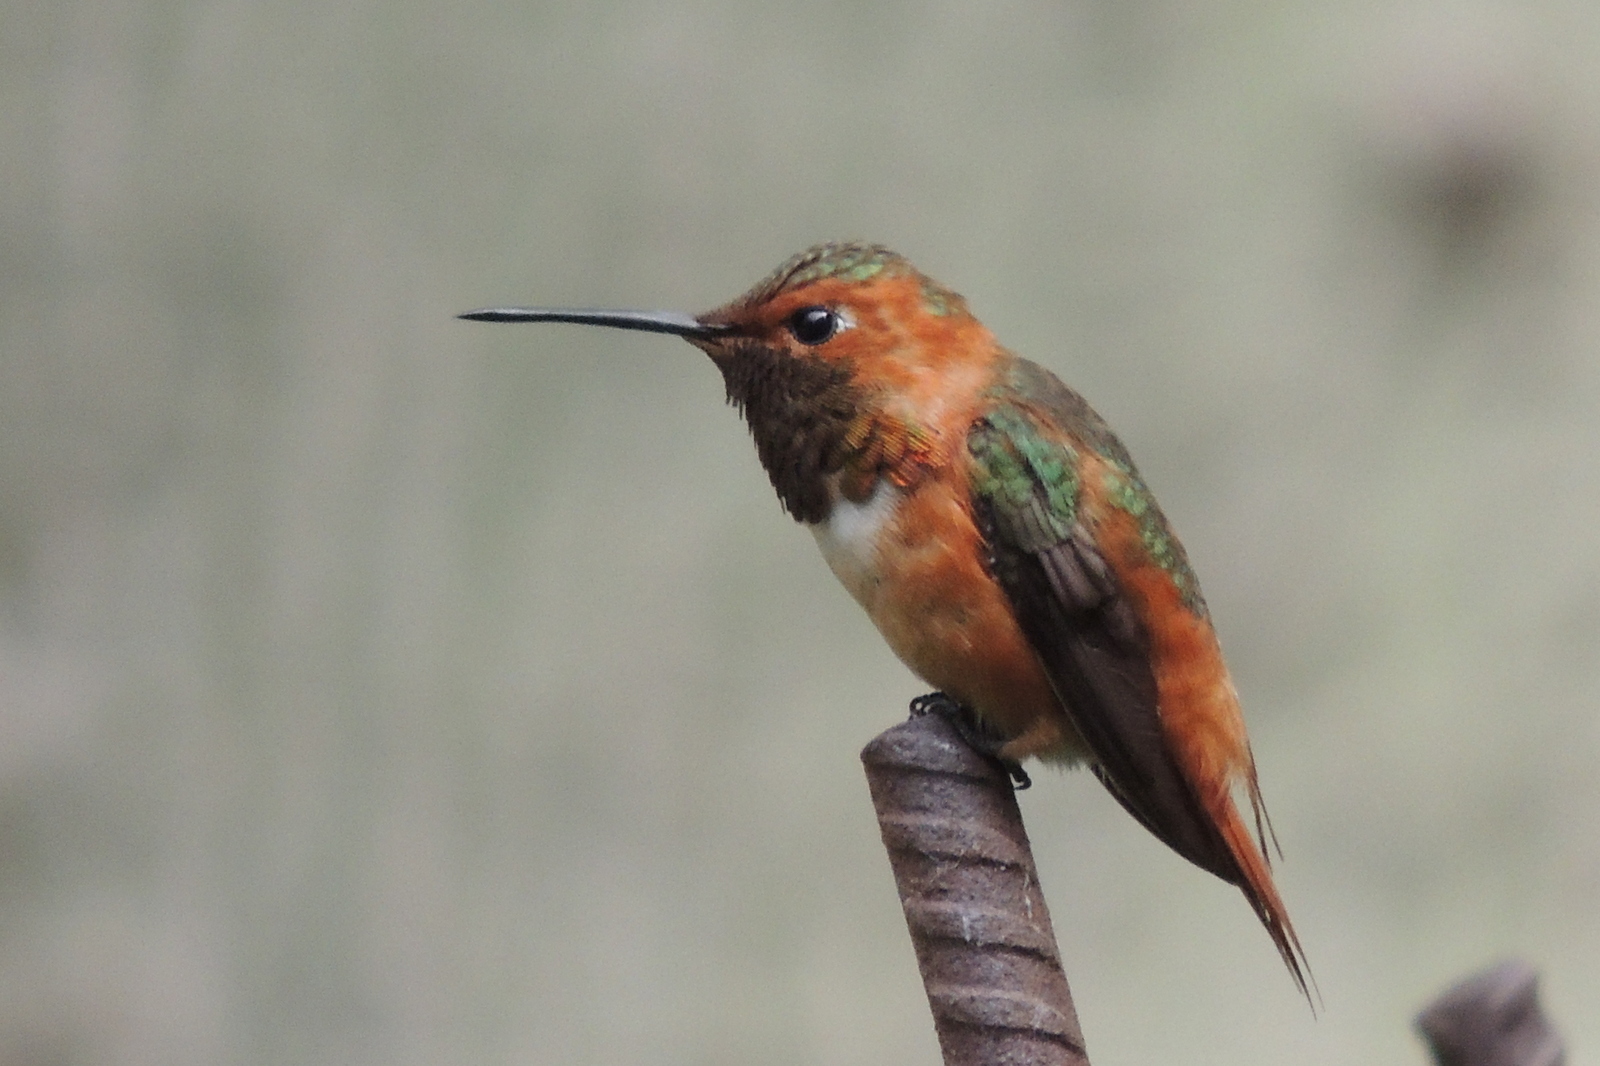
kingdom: Animalia
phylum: Chordata
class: Aves
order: Apodiformes
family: Trochilidae
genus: Selasphorus
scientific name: Selasphorus sasin
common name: Allen's hummingbird
